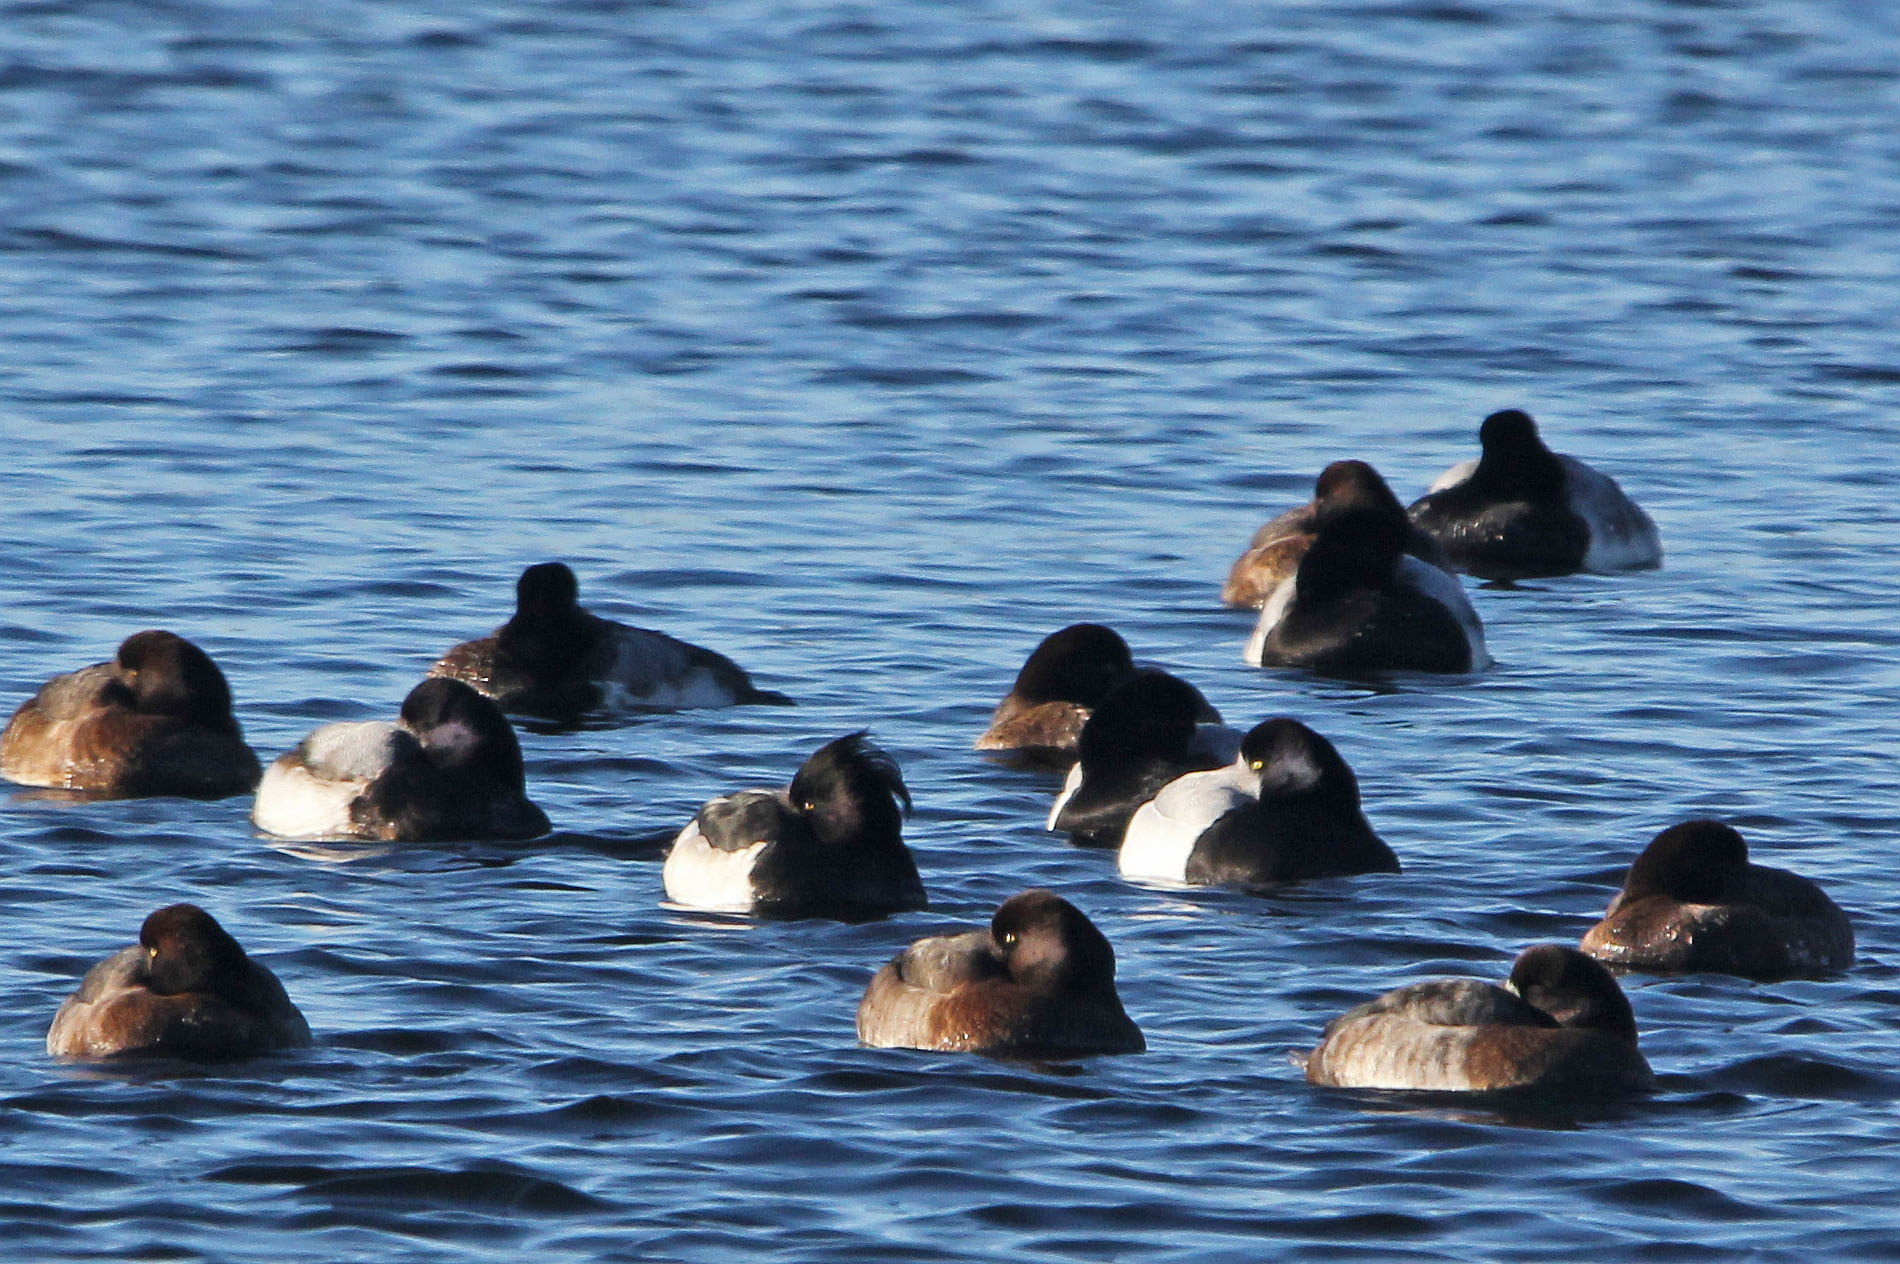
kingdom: Animalia
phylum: Chordata
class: Aves
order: Anseriformes
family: Anatidae
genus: Aythya
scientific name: Aythya fuligula
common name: Tufted duck
